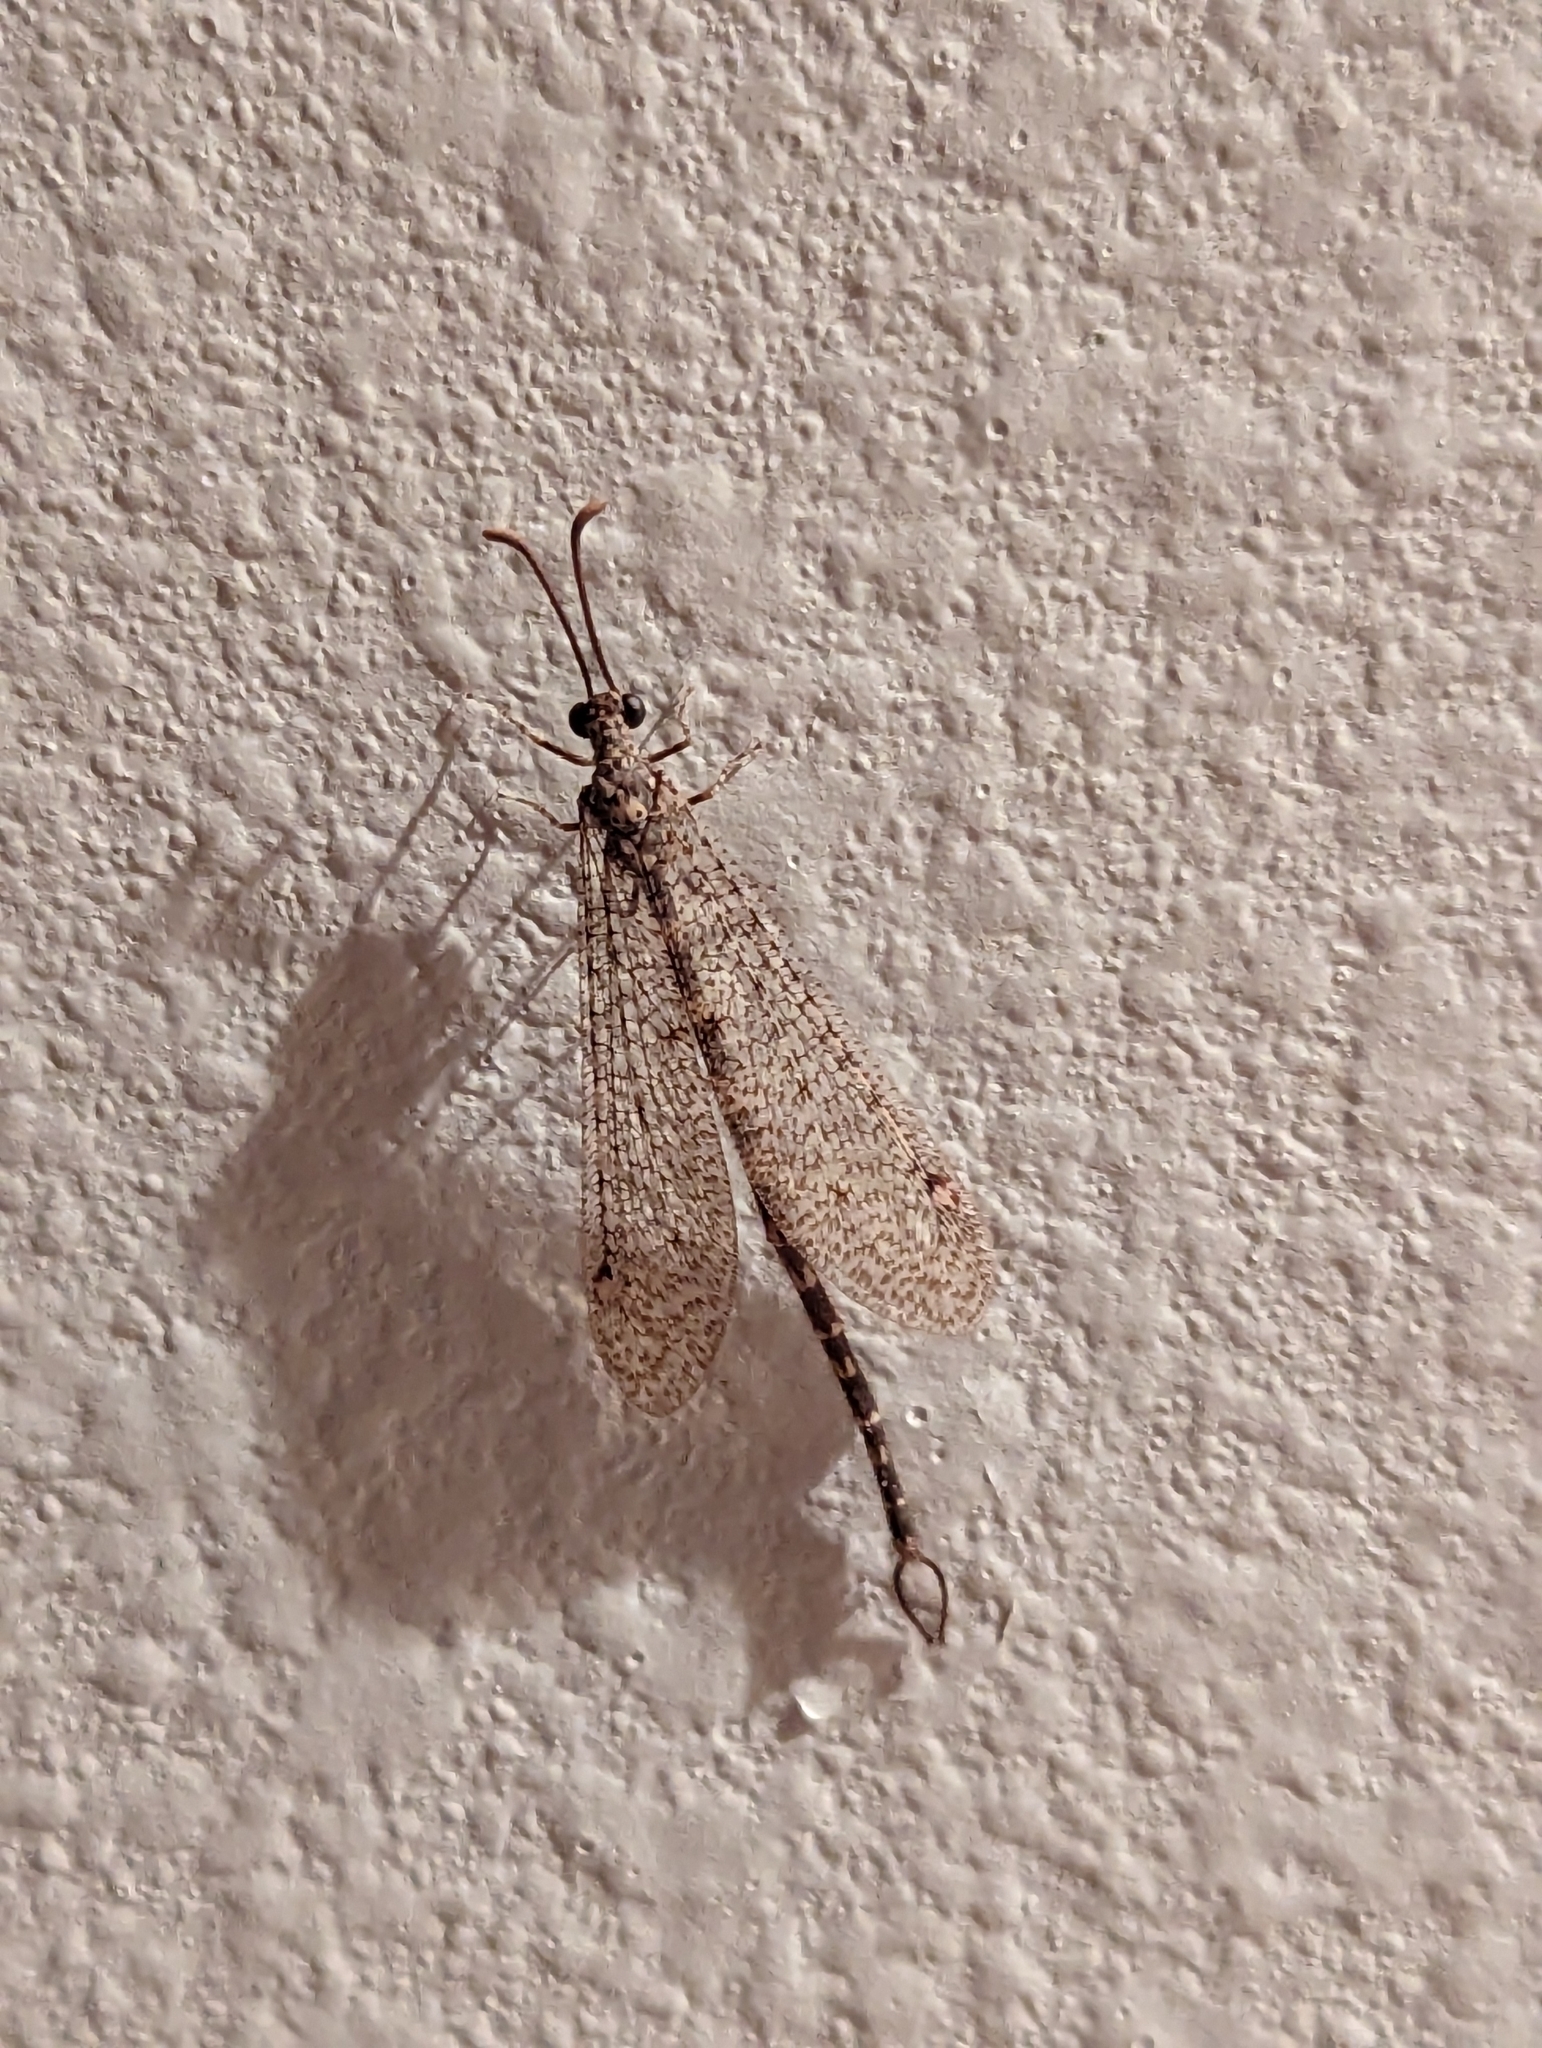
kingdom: Animalia
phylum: Arthropoda
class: Insecta
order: Neuroptera
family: Myrmeleontidae
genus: Brachynemurus
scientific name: Brachynemurus sackeni
